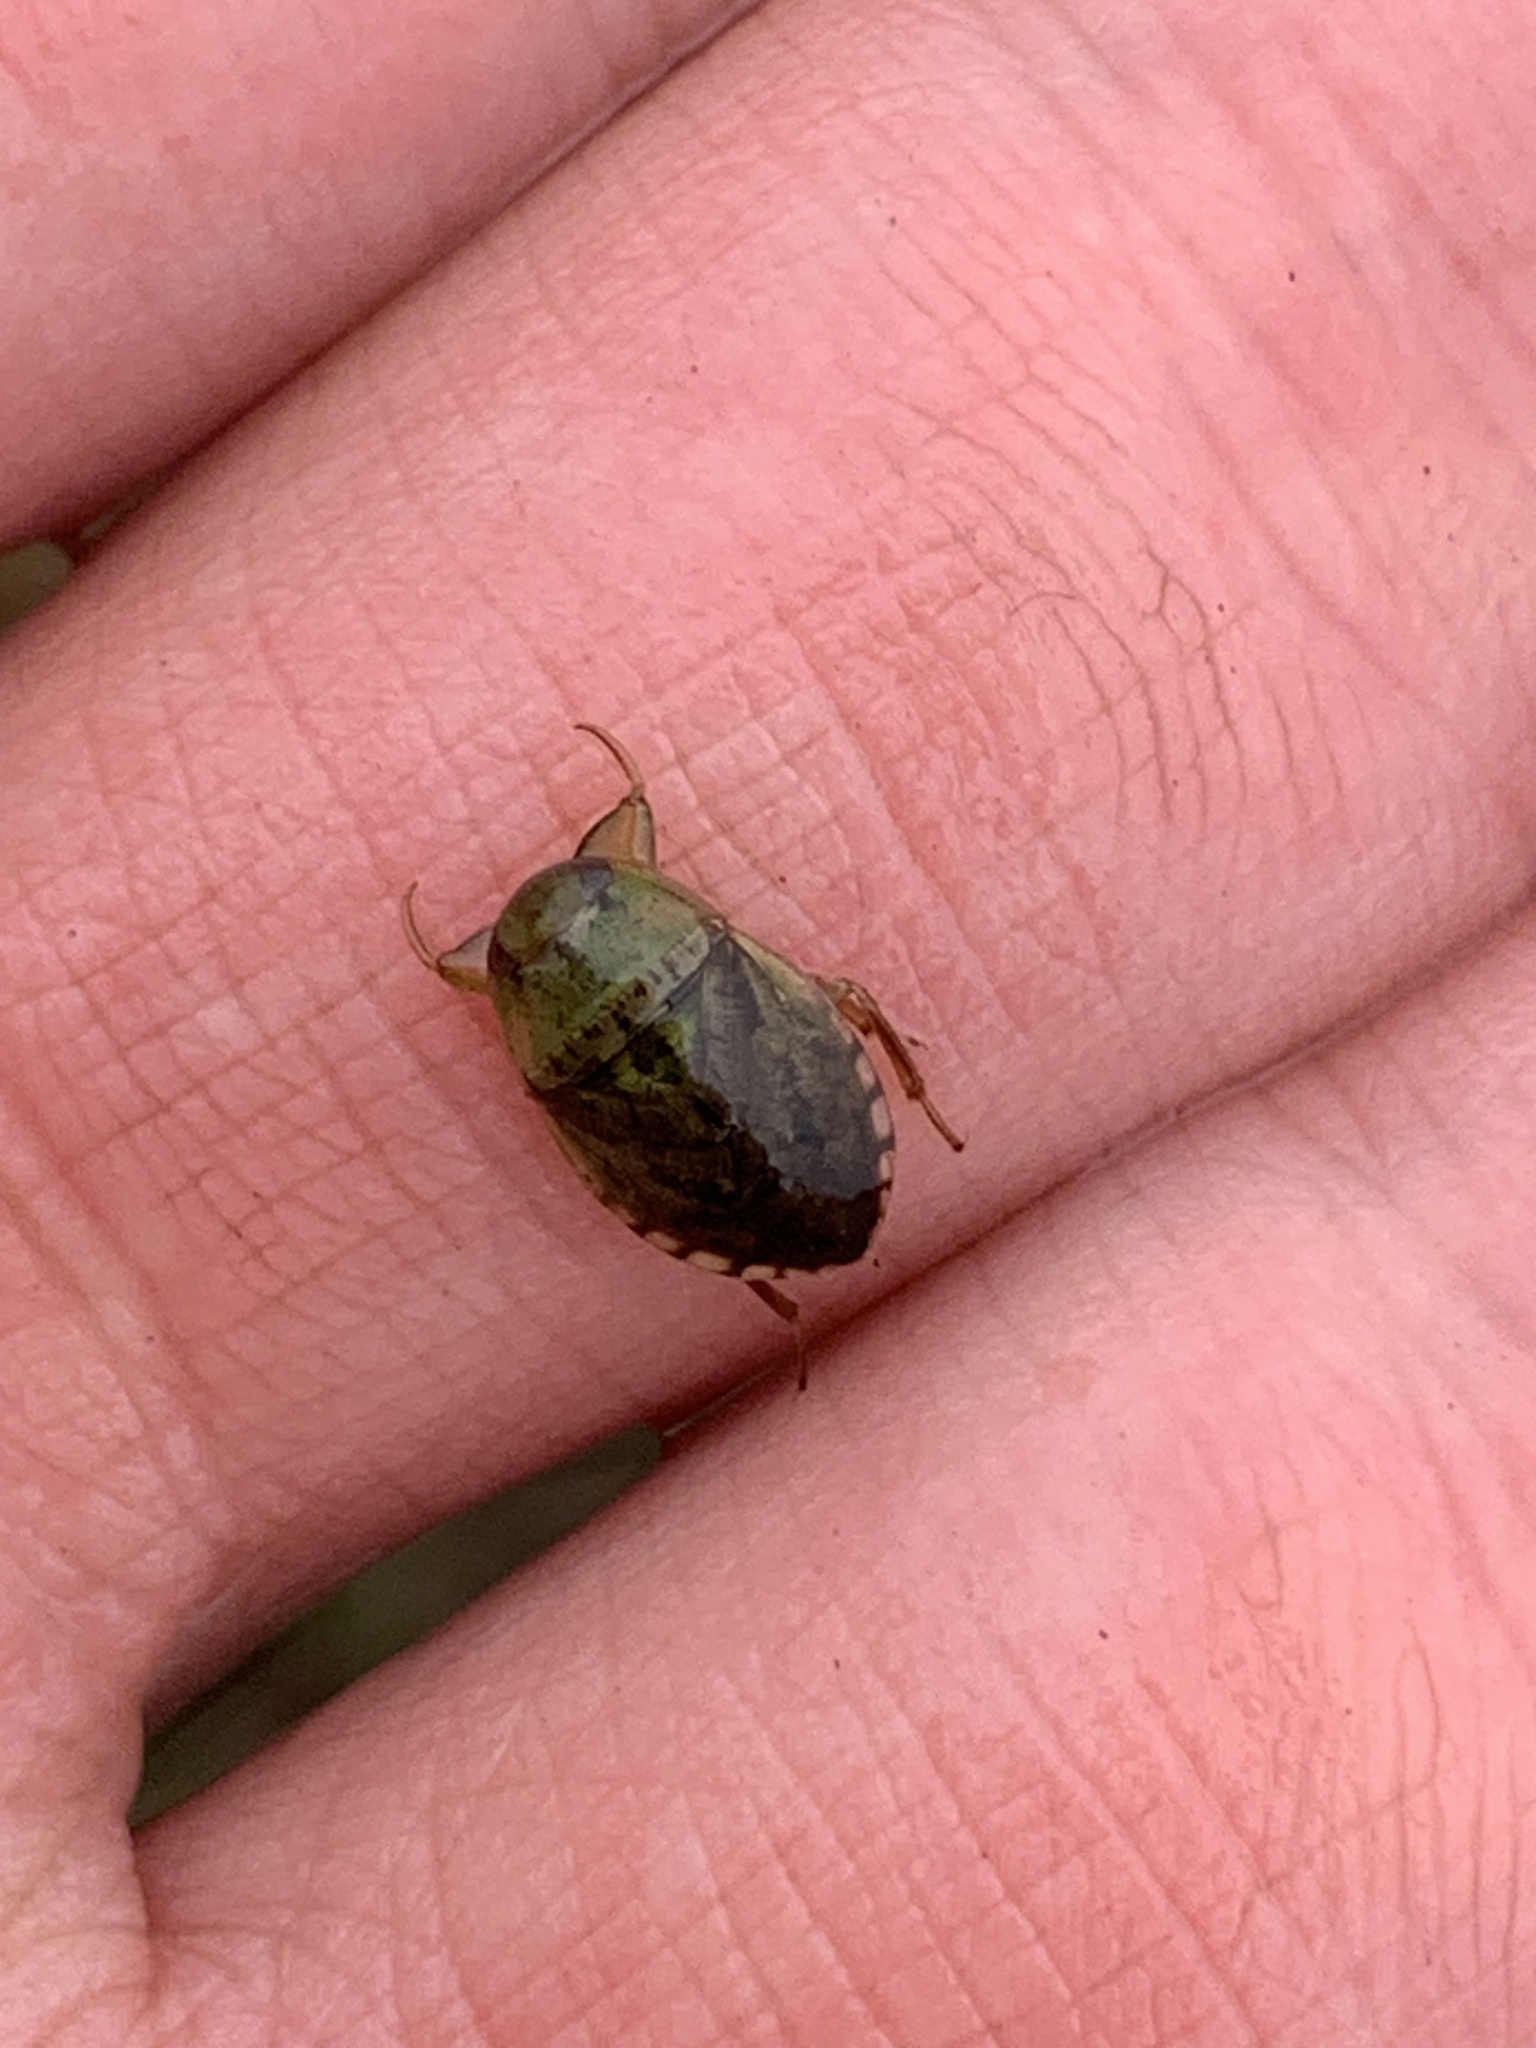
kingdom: Animalia
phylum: Arthropoda
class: Insecta
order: Hemiptera
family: Naucoridae
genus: Pelocoris
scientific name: Pelocoris femoratus
